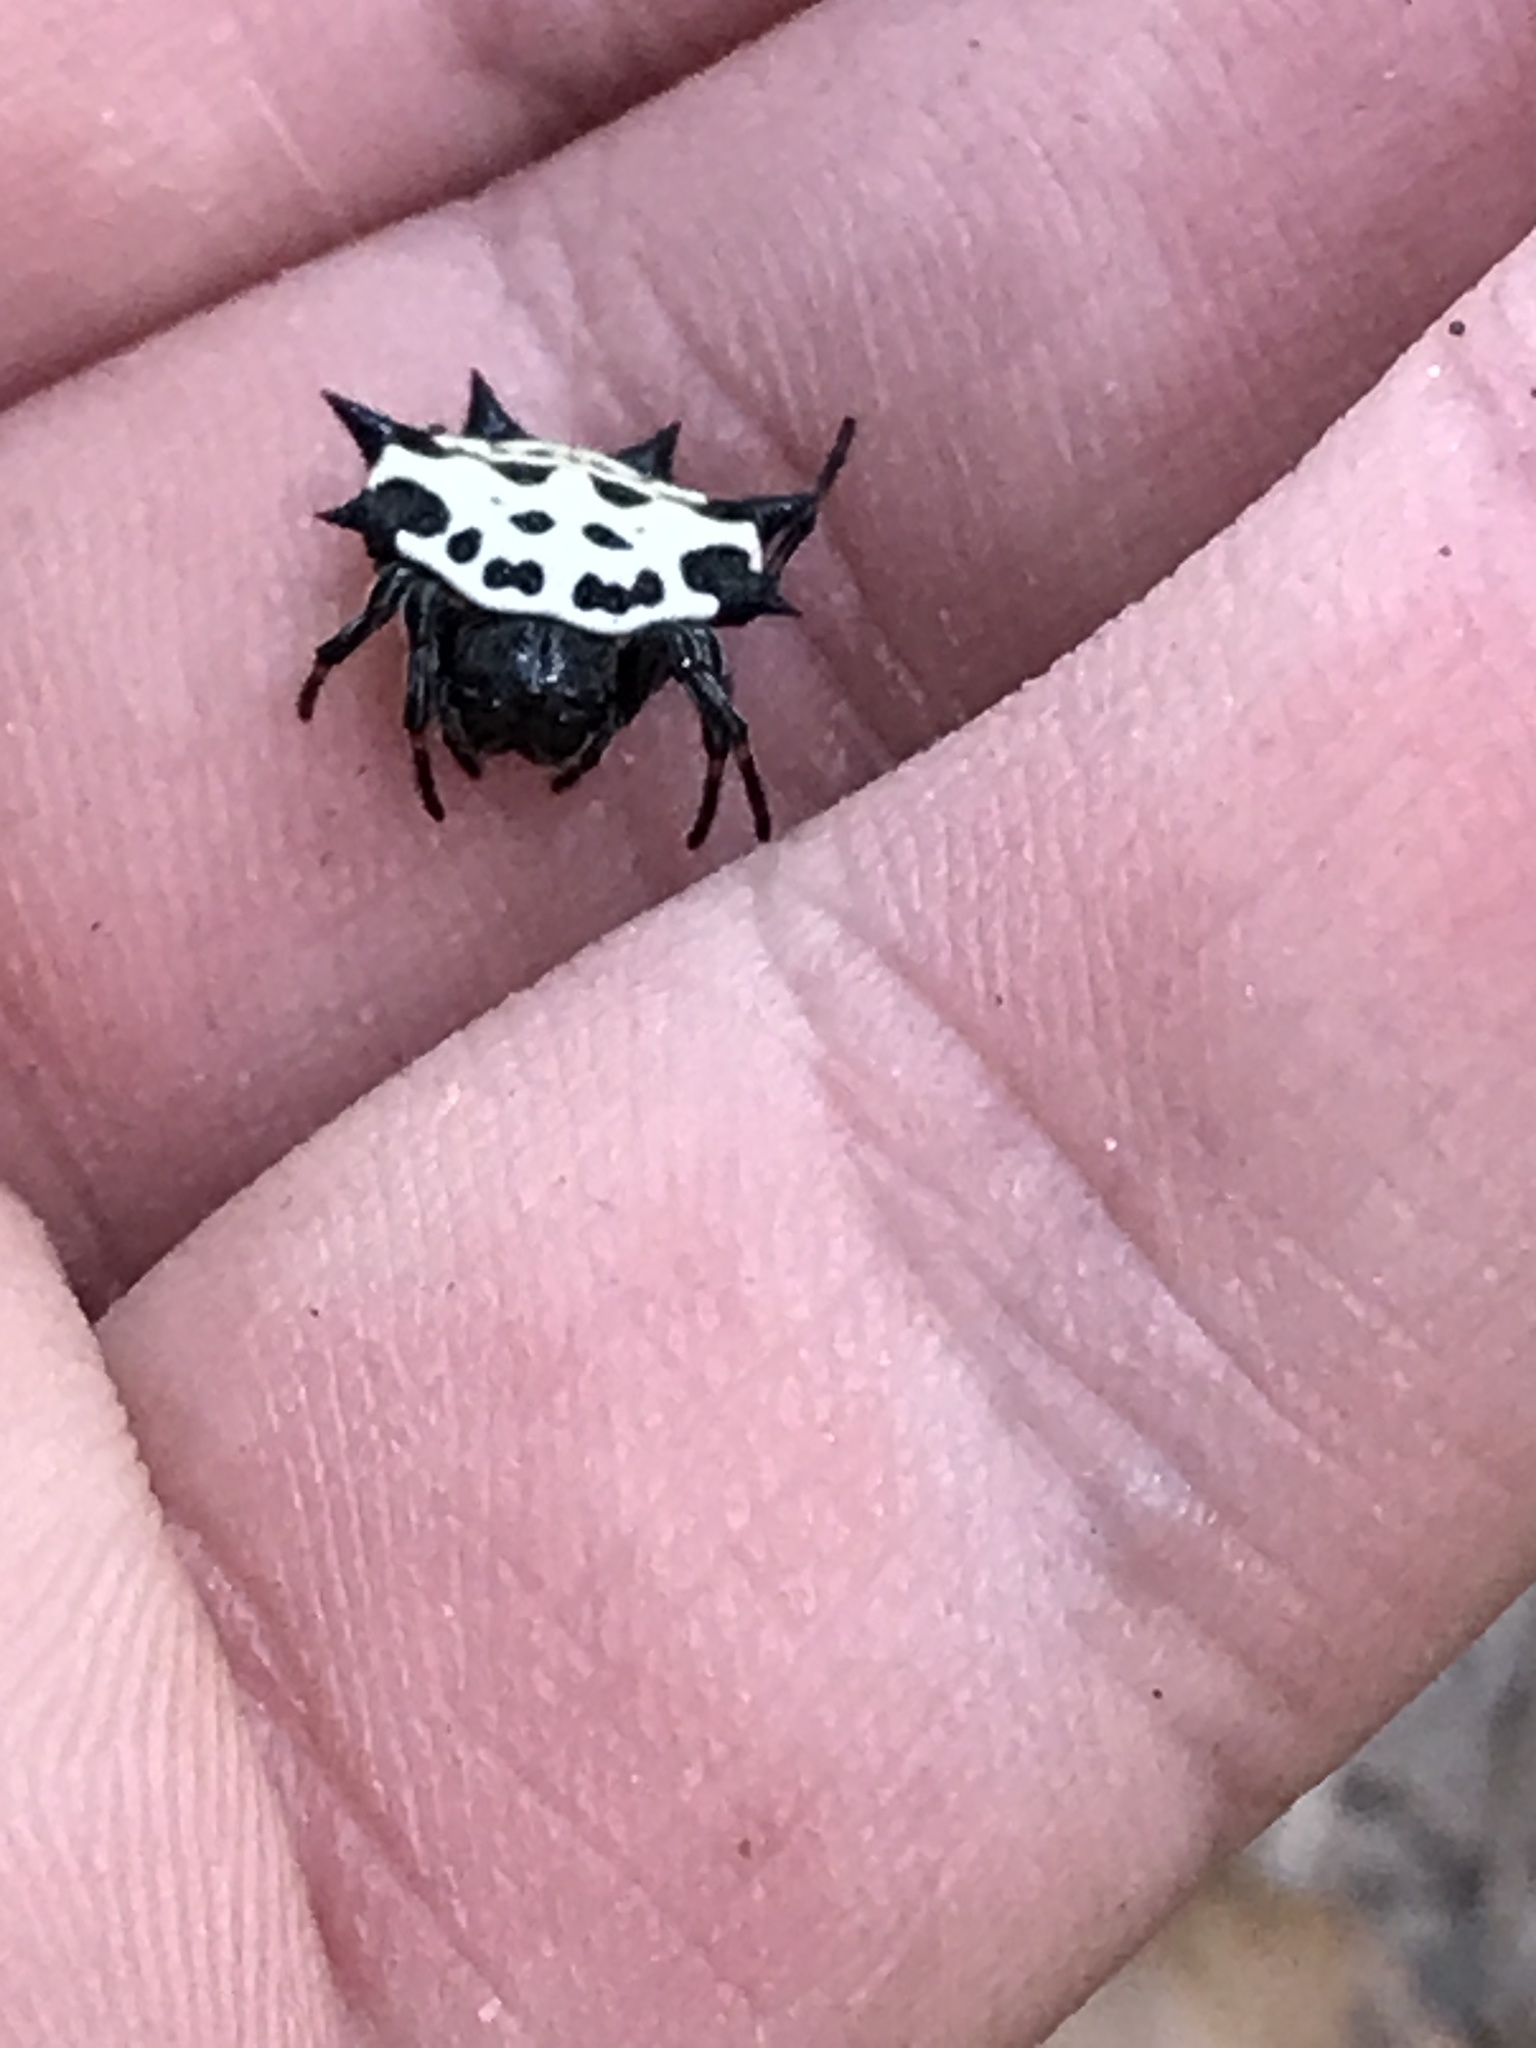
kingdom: Animalia
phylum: Arthropoda
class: Arachnida
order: Araneae
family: Araneidae
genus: Gasteracantha
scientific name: Gasteracantha cancriformis
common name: Orb weavers
